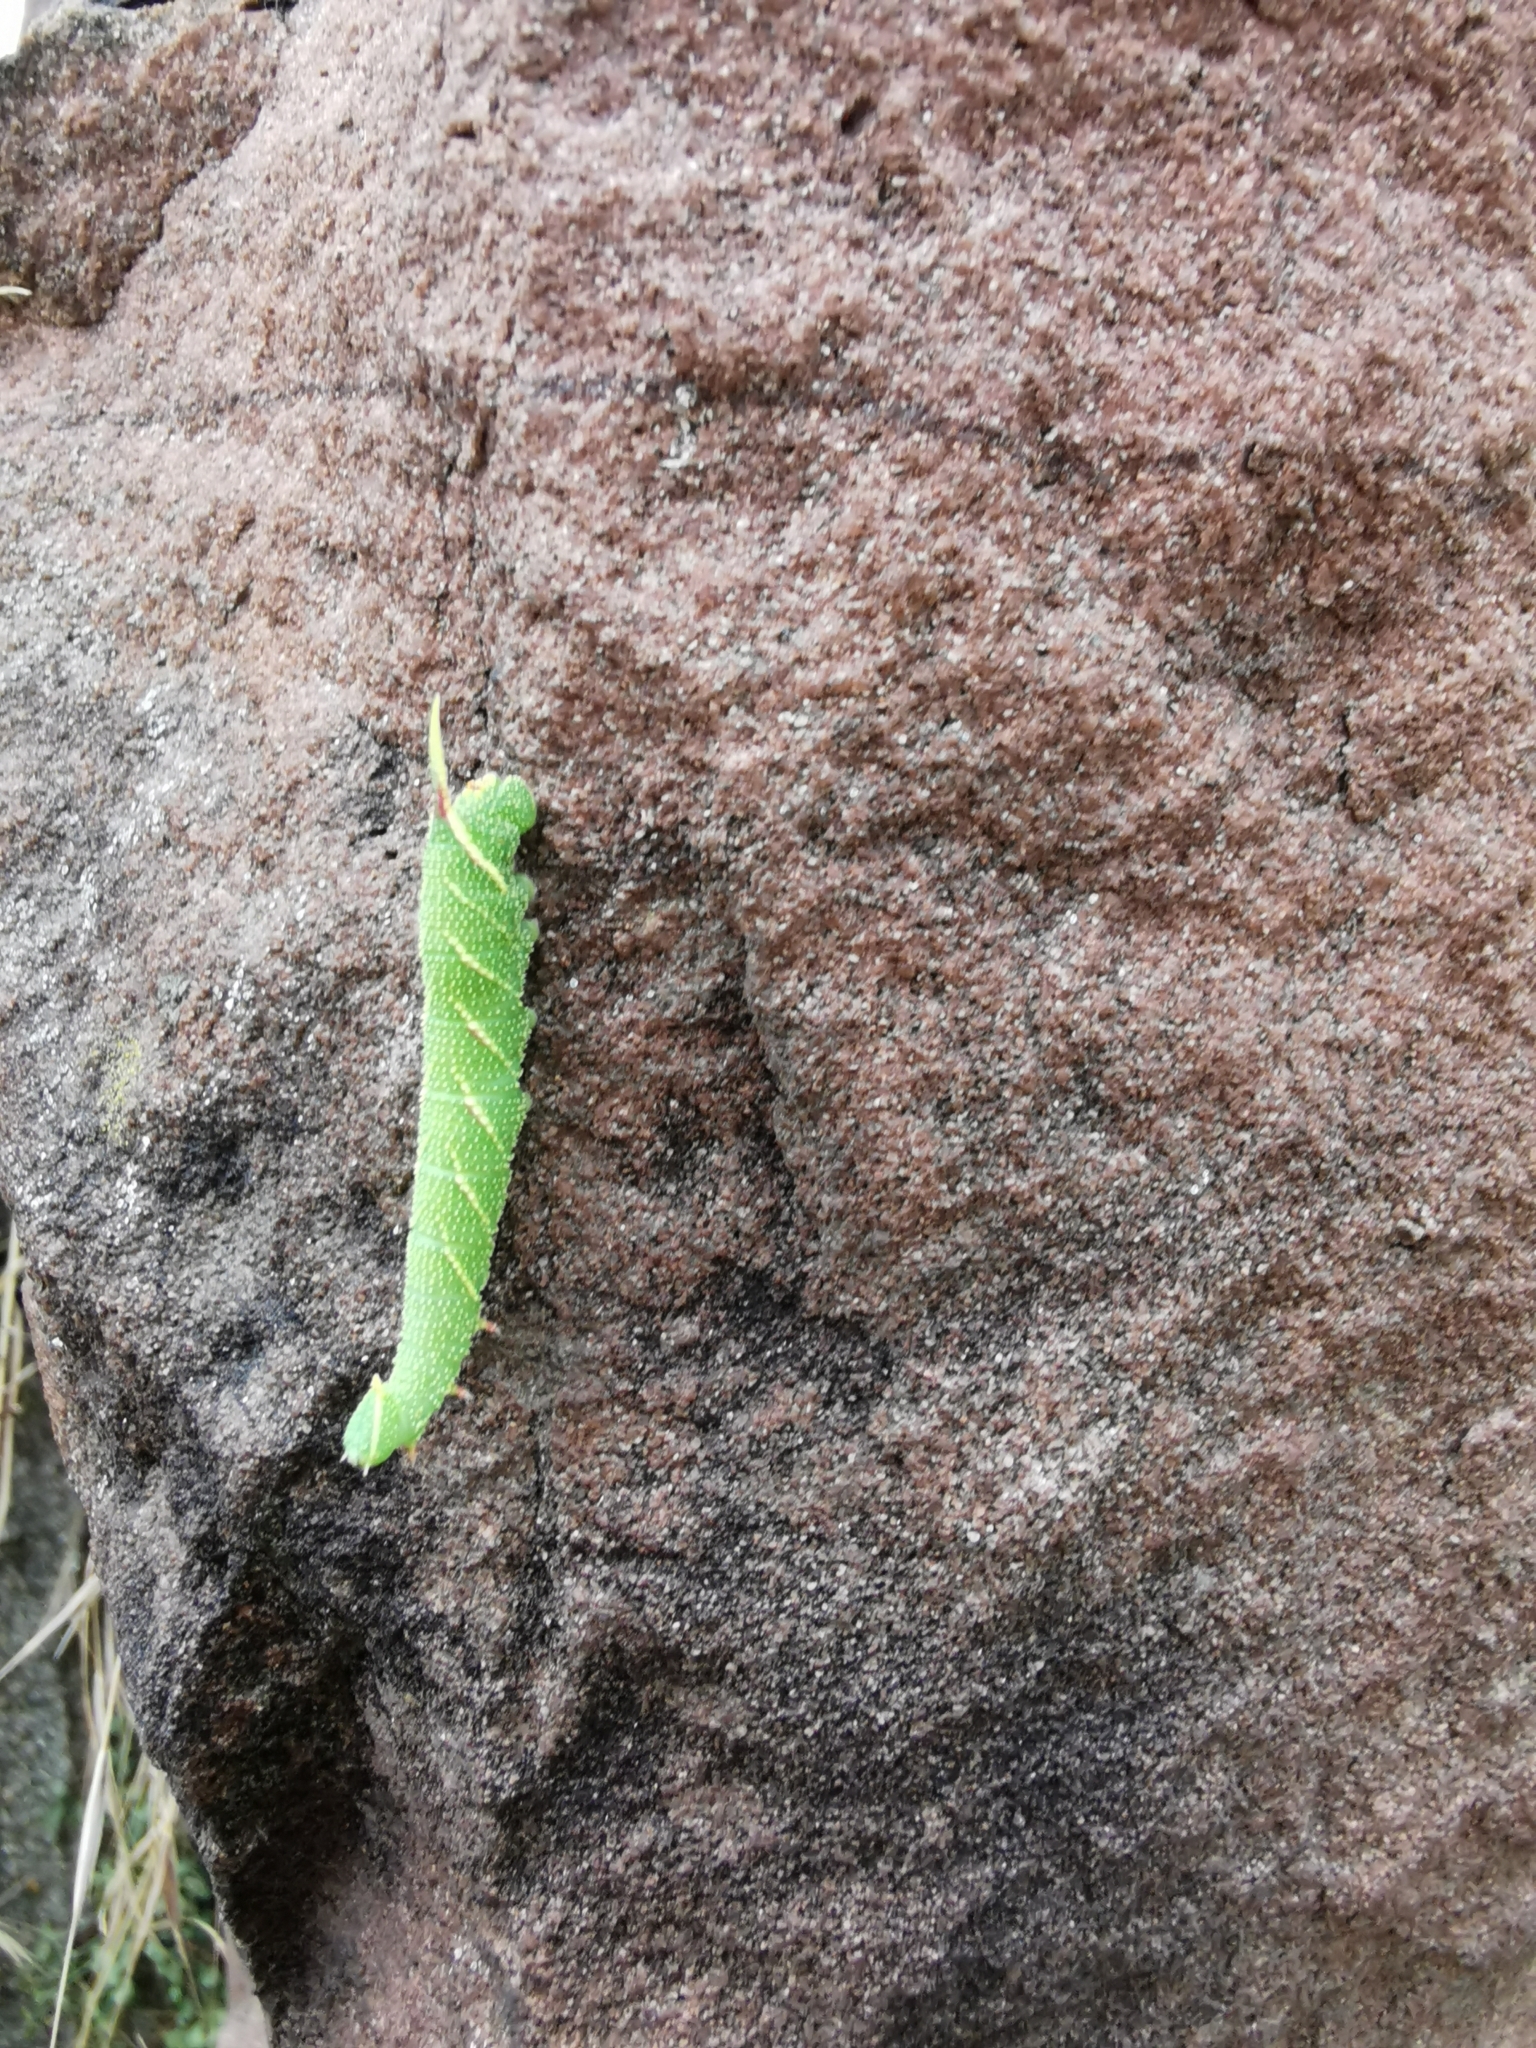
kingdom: Animalia
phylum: Arthropoda
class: Insecta
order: Lepidoptera
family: Sphingidae
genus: Mimas
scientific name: Mimas tiliae
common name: Lime hawk-moth
